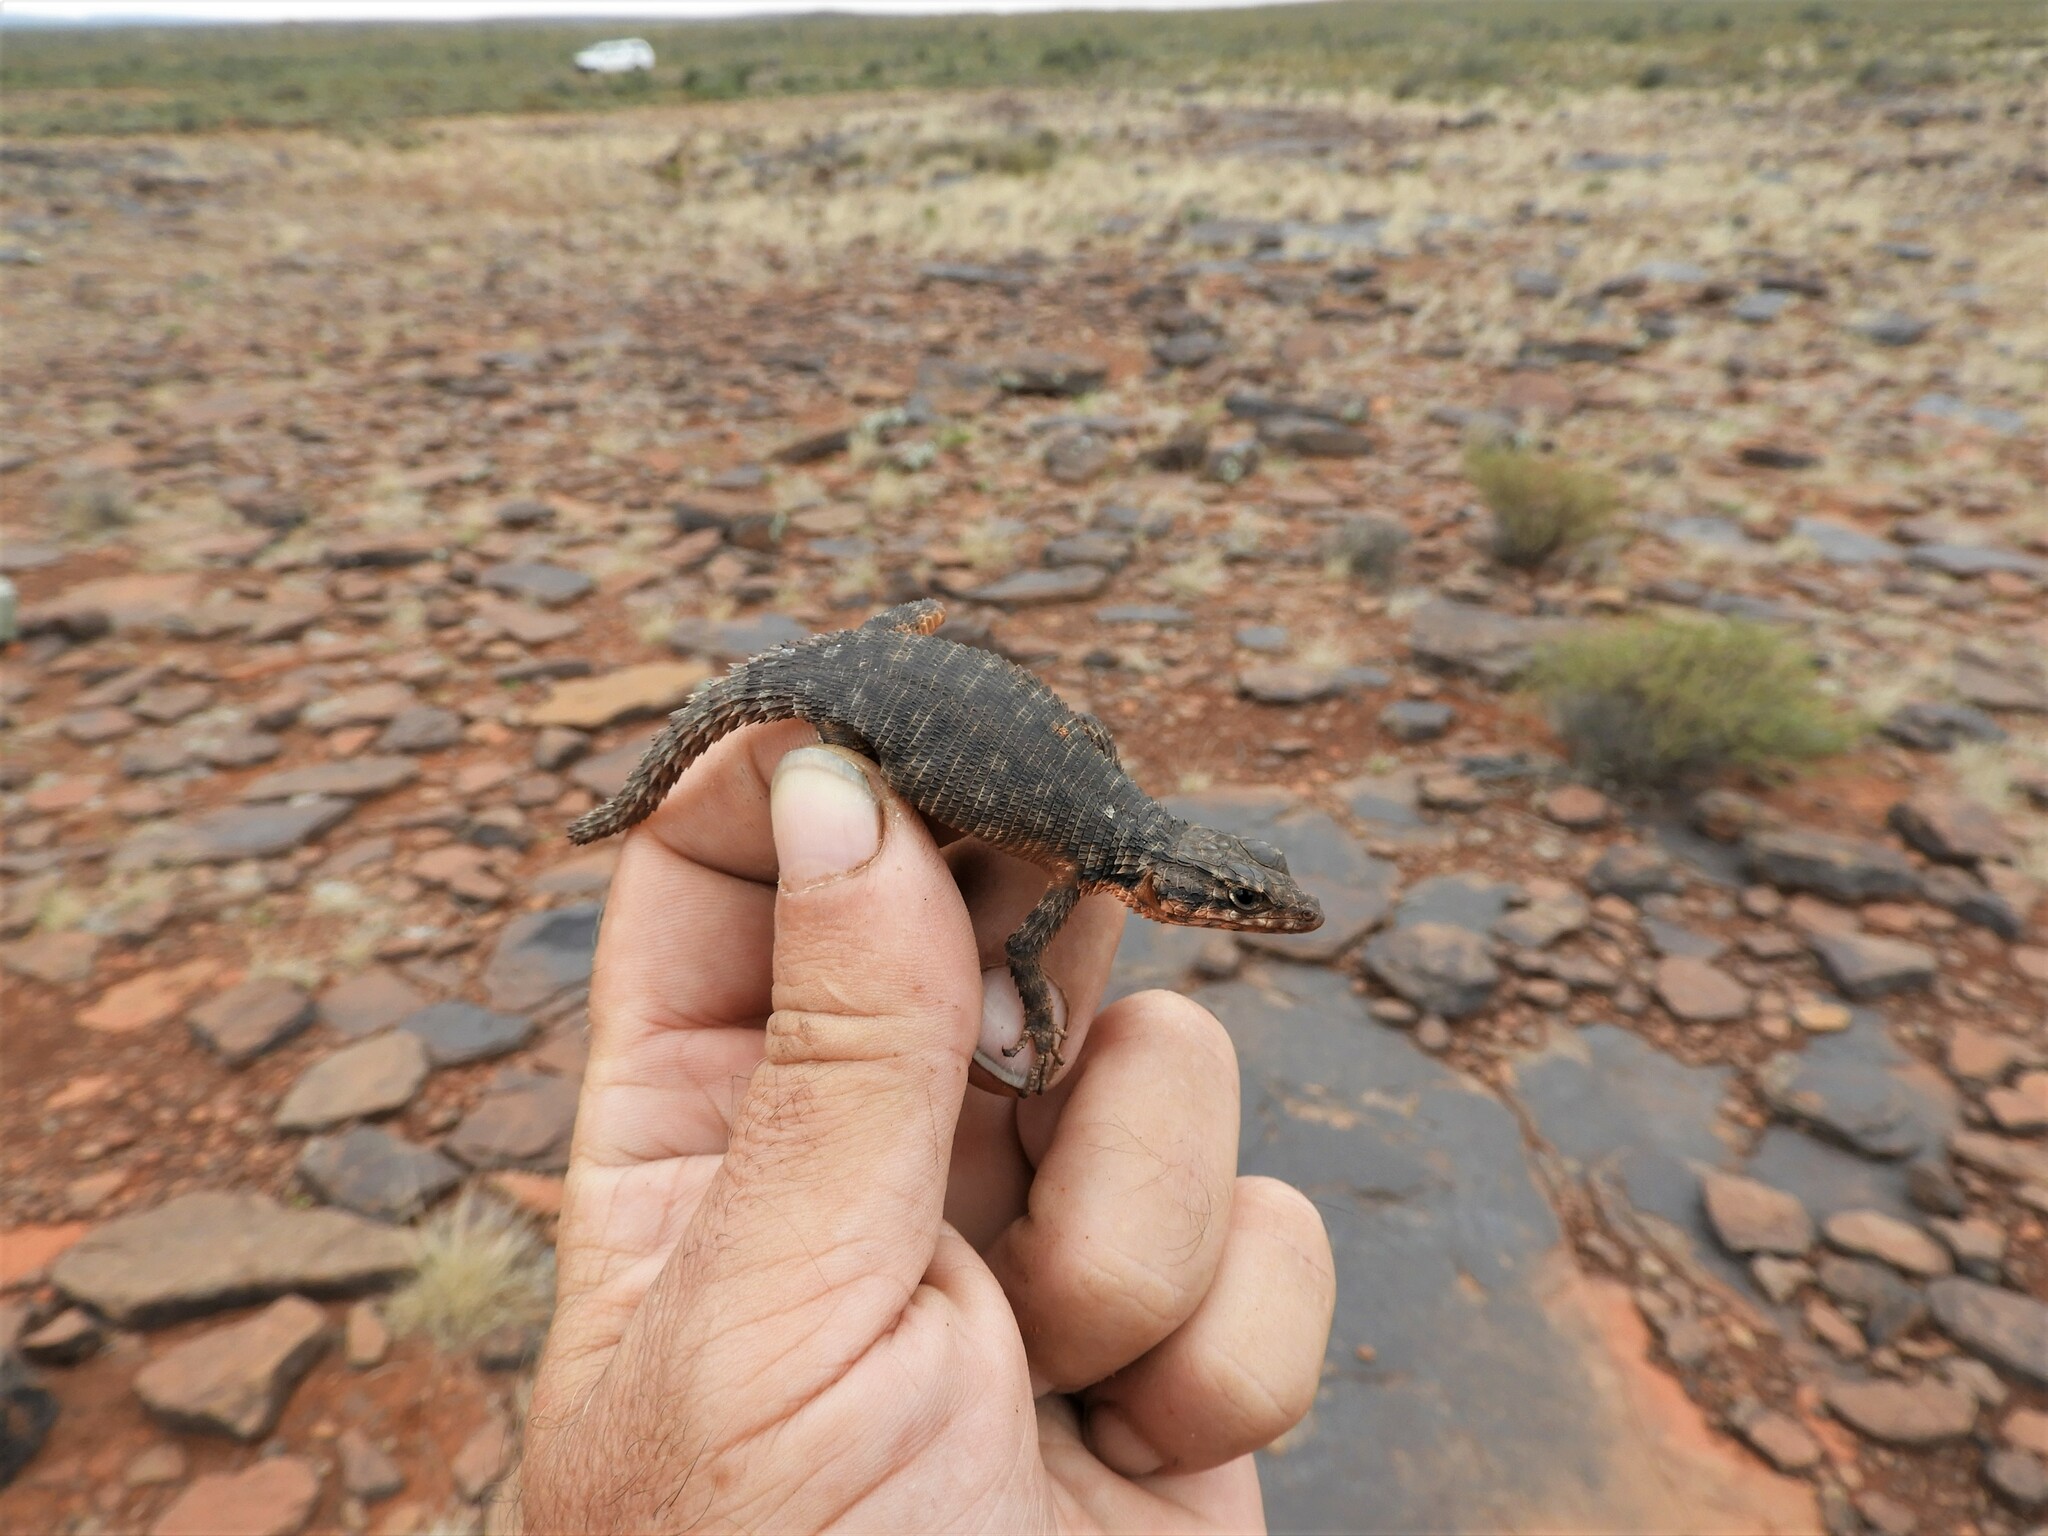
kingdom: Animalia
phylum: Chordata
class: Squamata
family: Cordylidae
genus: Karusasaurus
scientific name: Karusasaurus polyzonus
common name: Karoo girdled lizard
